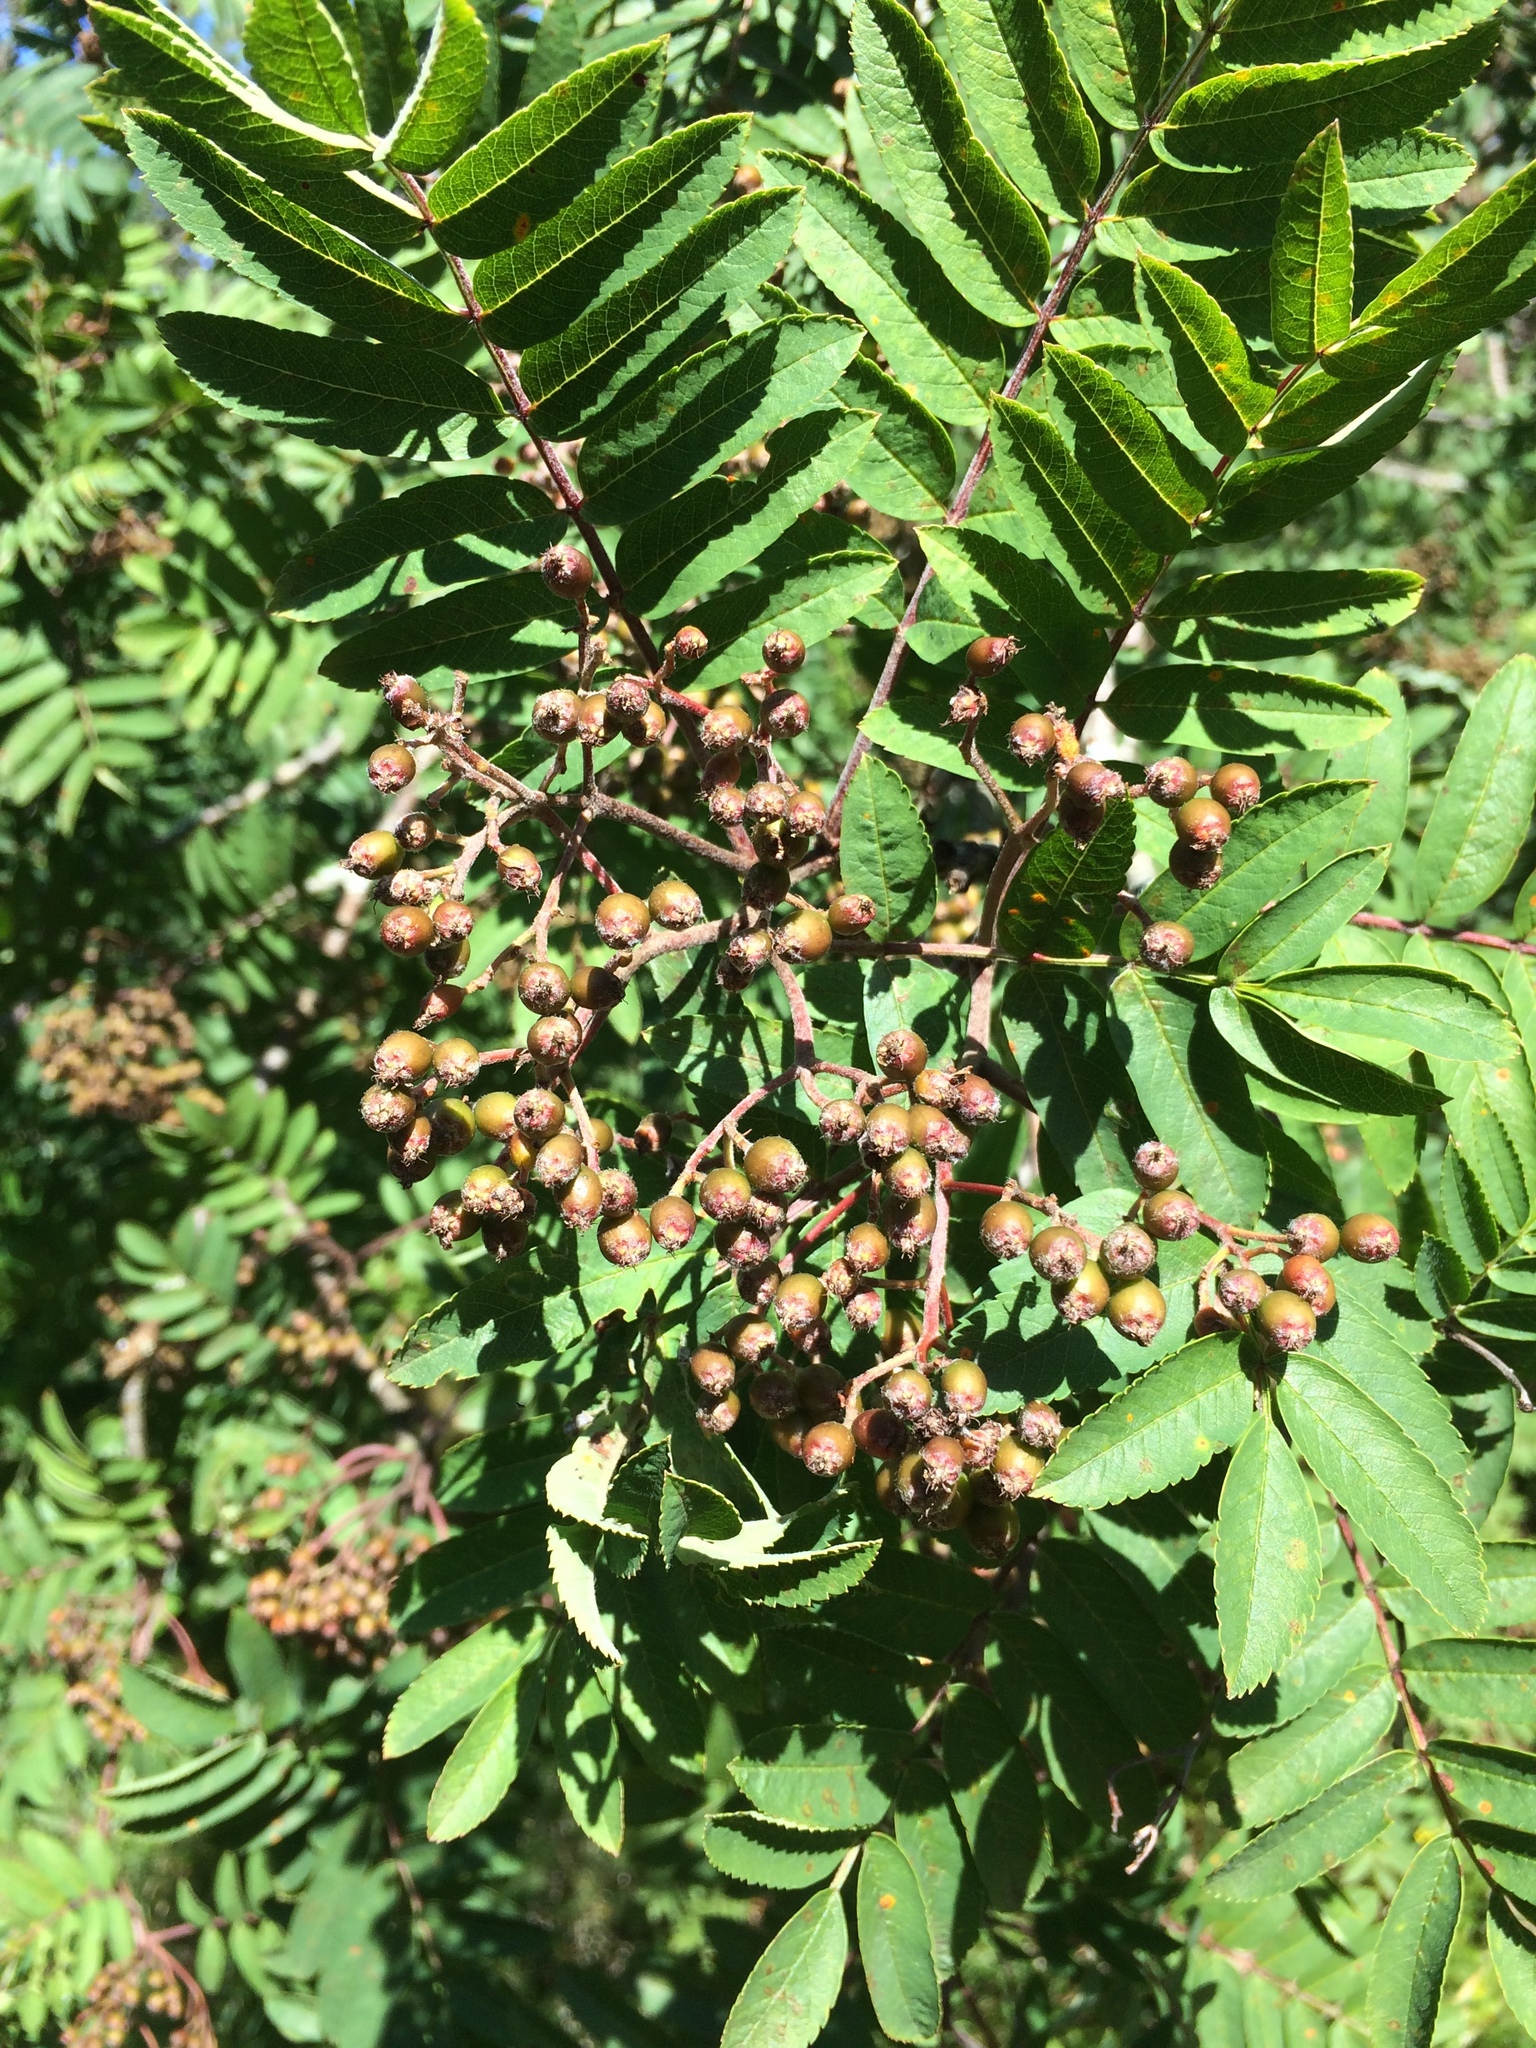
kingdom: Plantae
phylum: Tracheophyta
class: Magnoliopsida
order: Rosales
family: Rosaceae
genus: Sorbus
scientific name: Sorbus aucuparia
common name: Rowan
